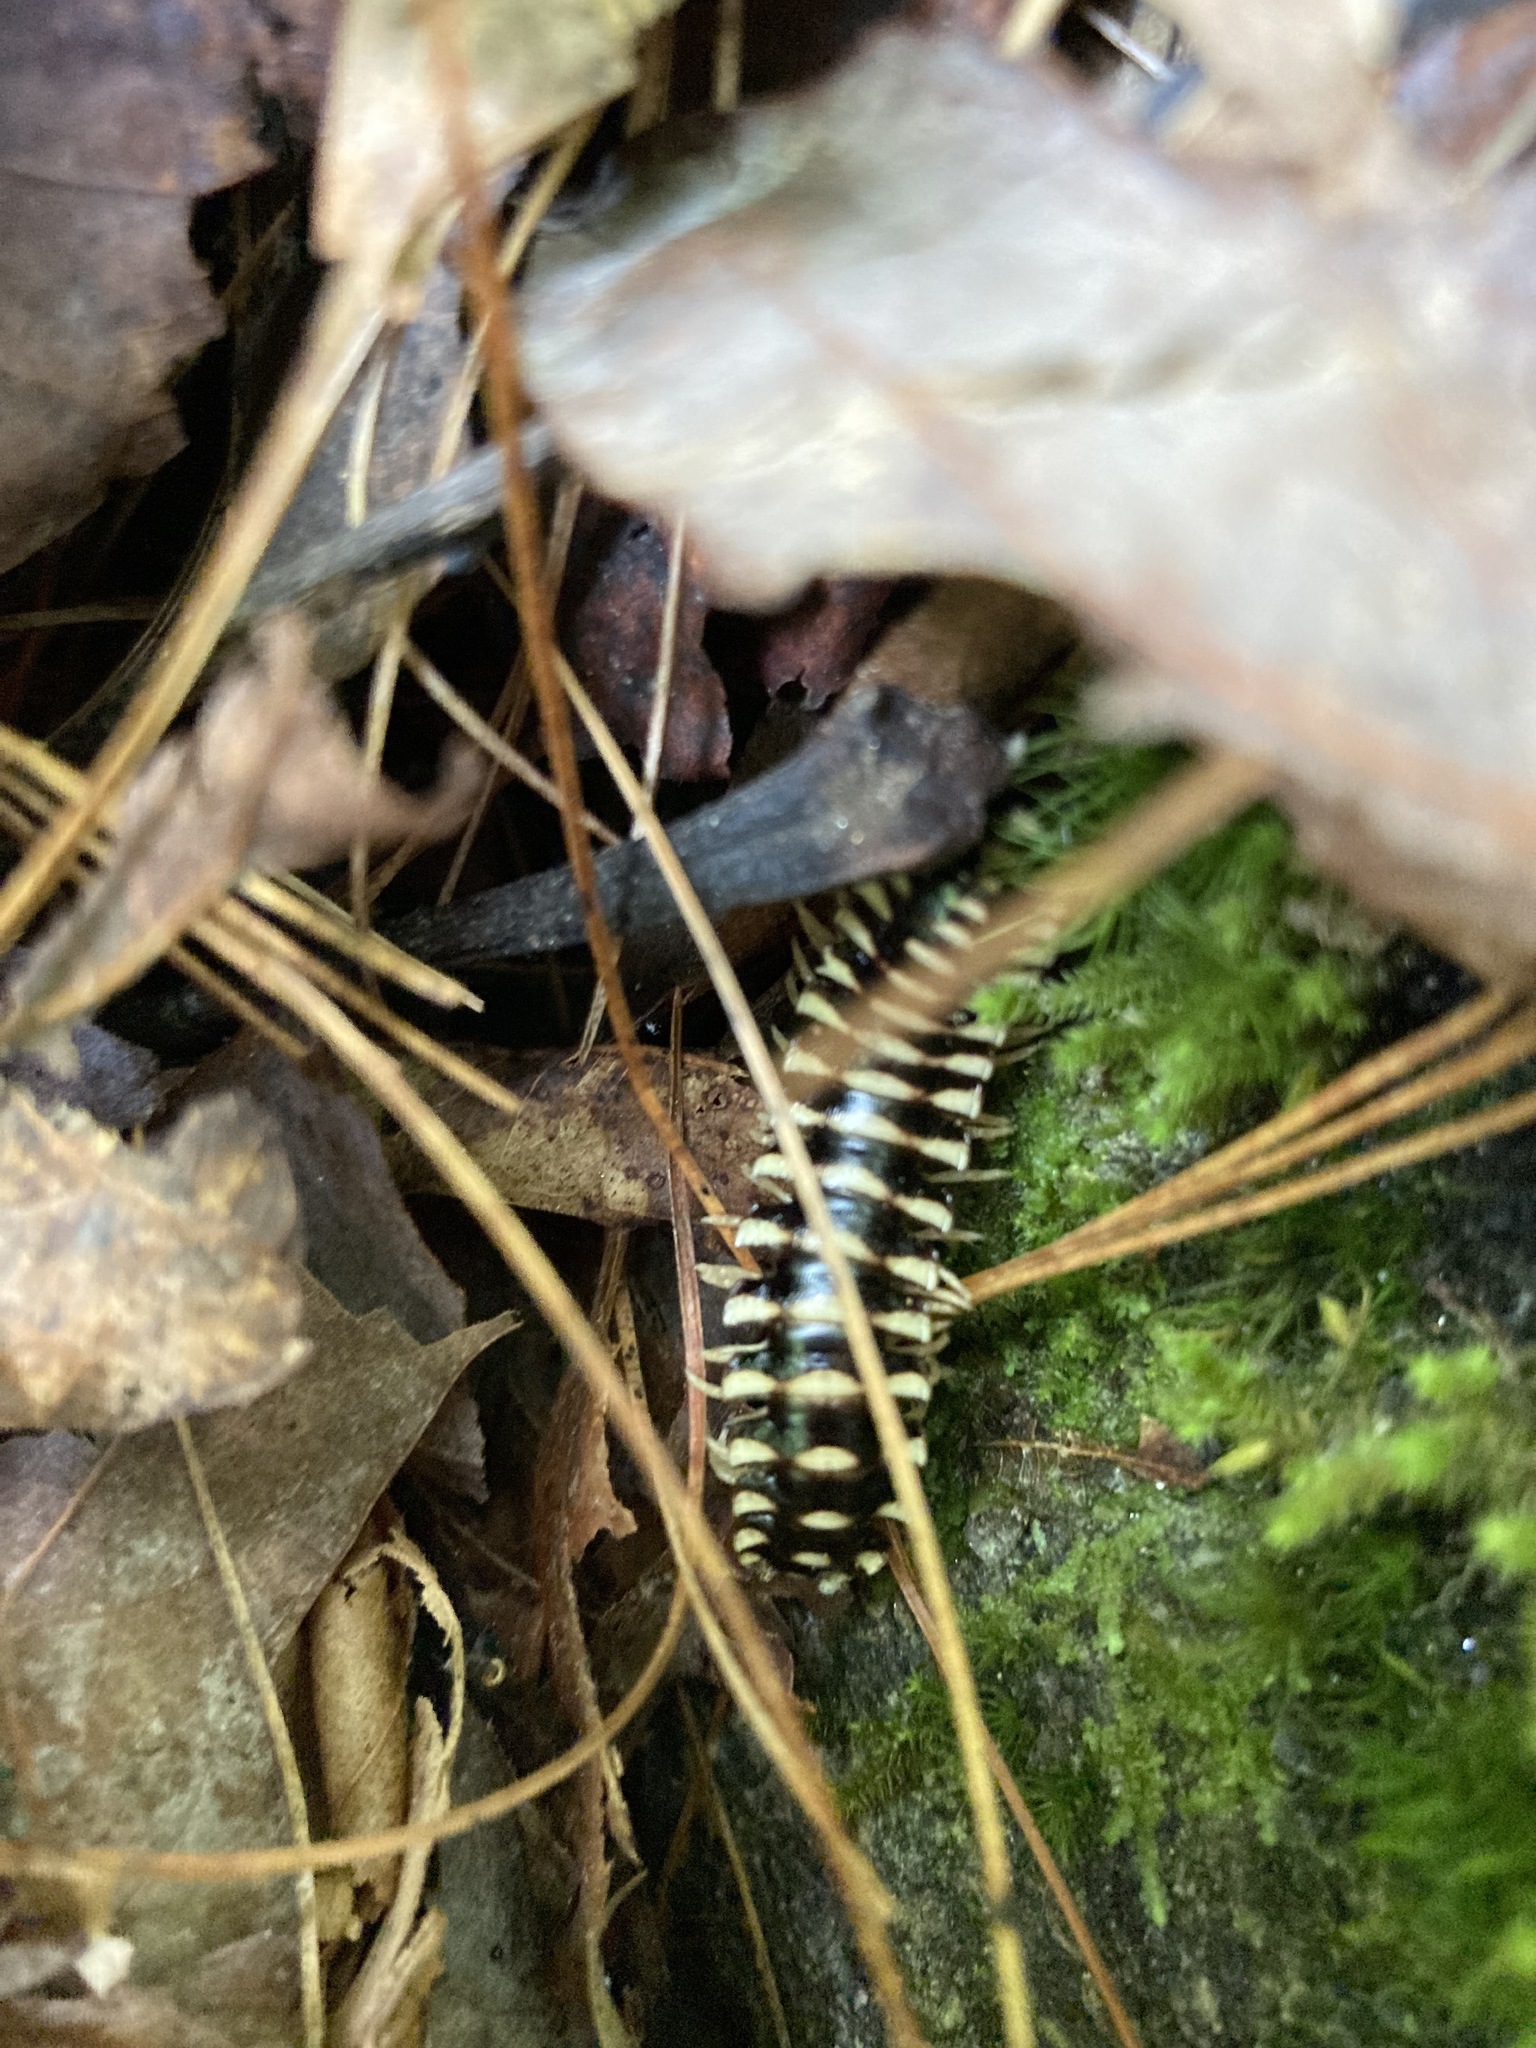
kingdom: Animalia
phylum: Arthropoda
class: Diplopoda
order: Polydesmida
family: Xystodesmidae
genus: Cherokia
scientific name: Cherokia georgiana
